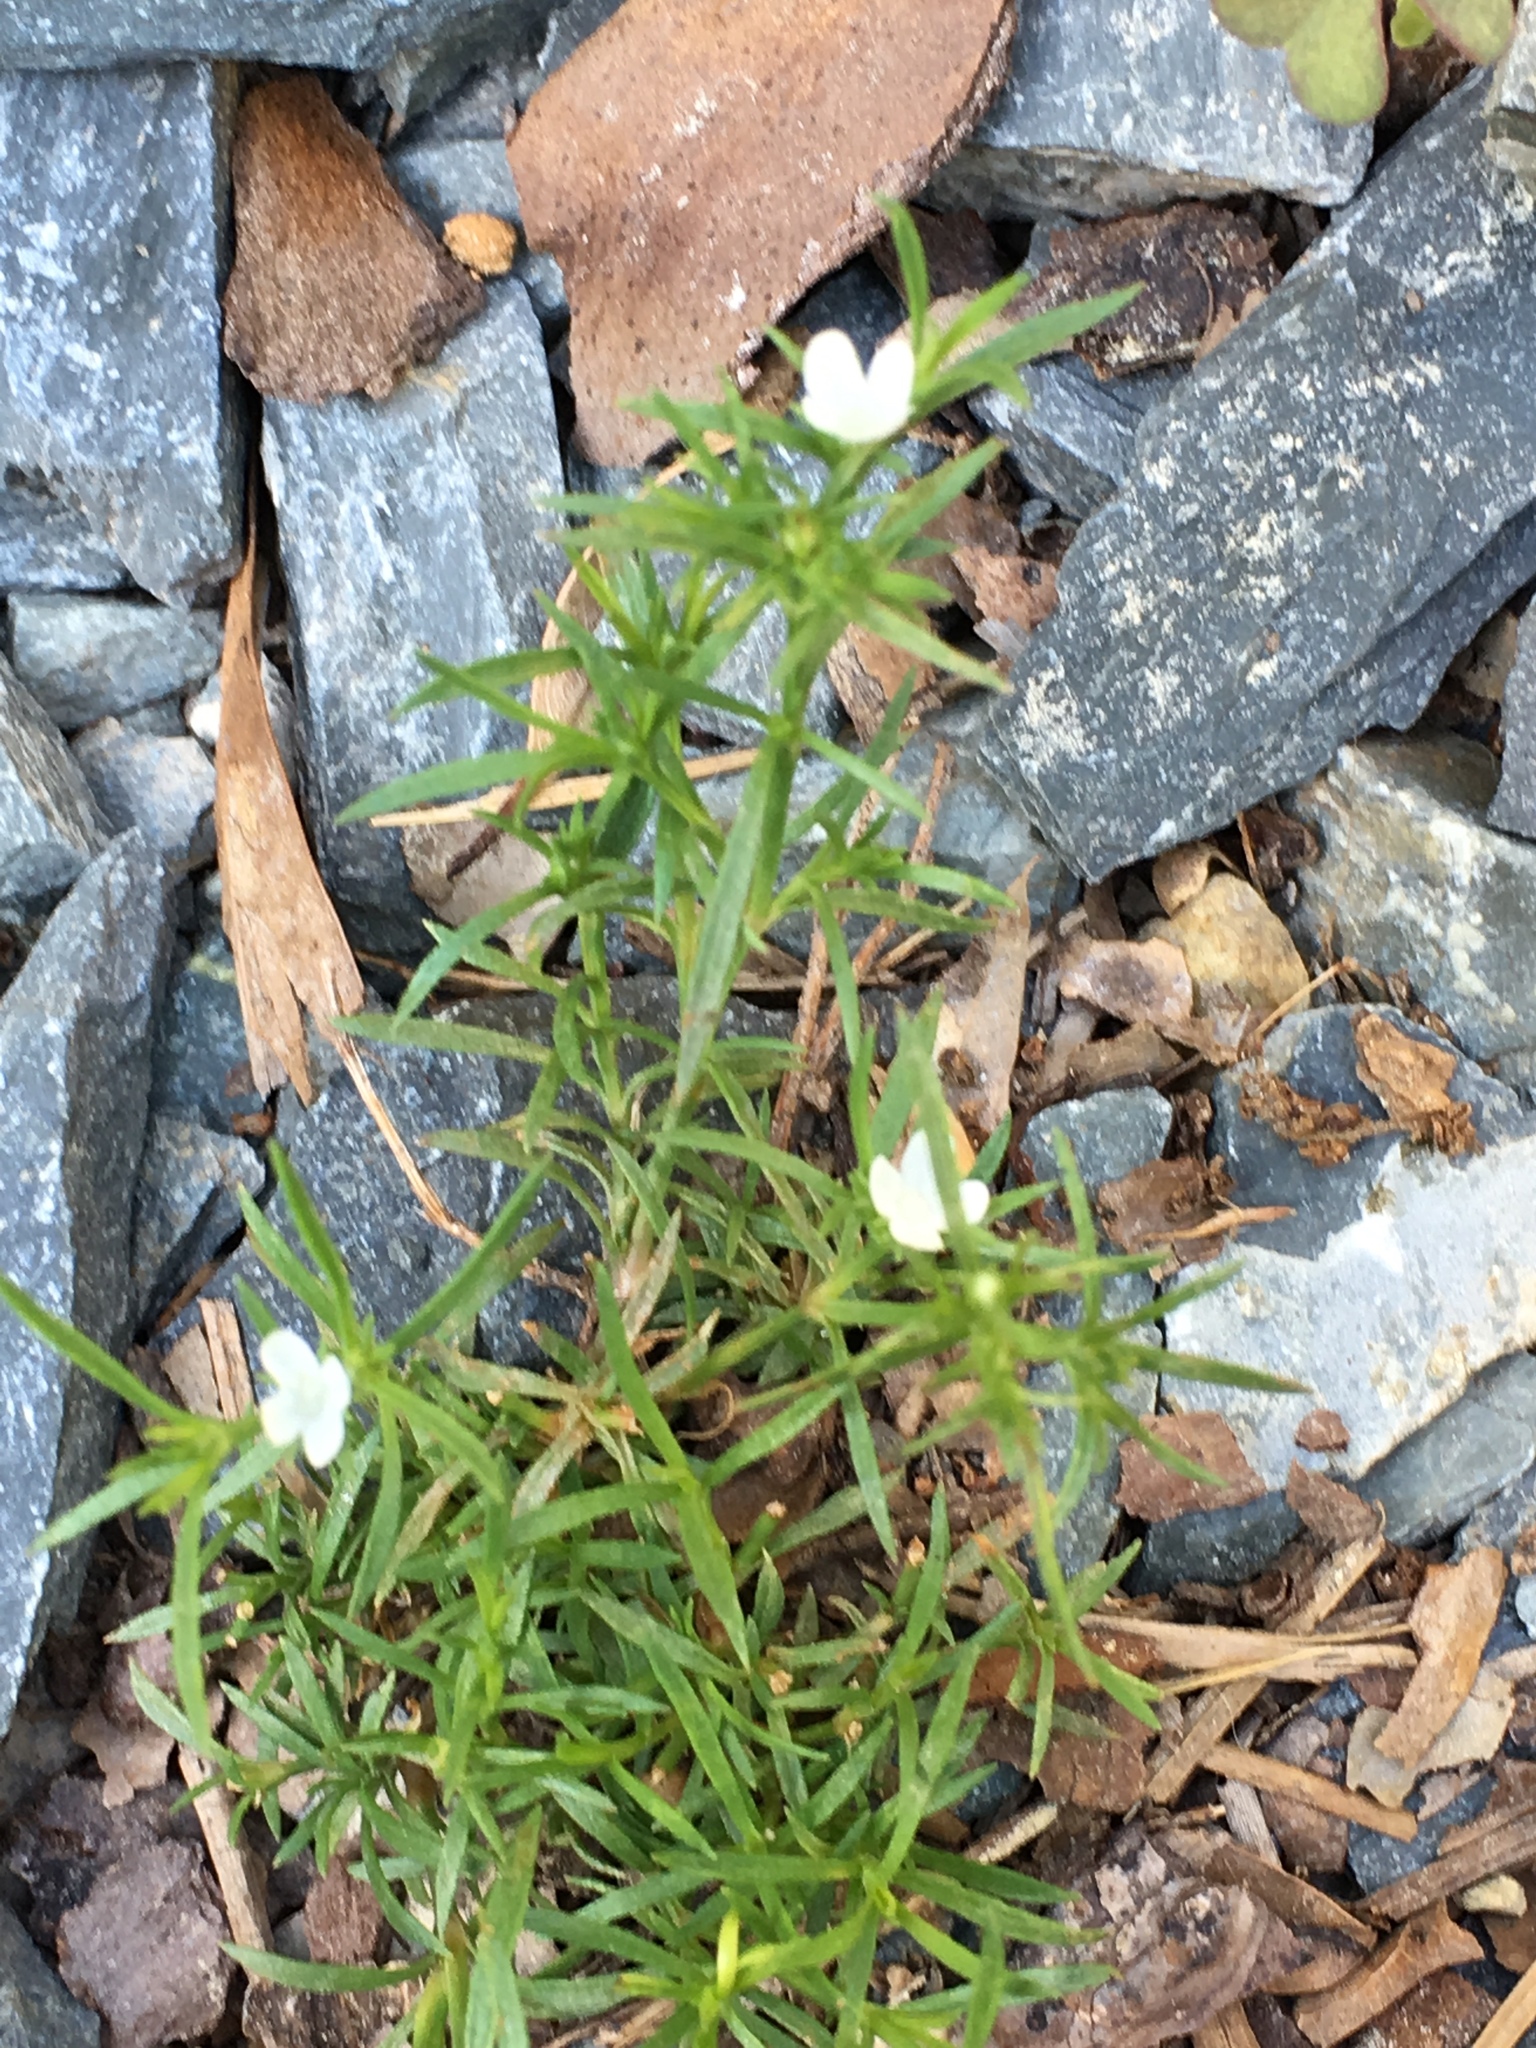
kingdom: Plantae
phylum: Tracheophyta
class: Magnoliopsida
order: Lamiales
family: Tetrachondraceae
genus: Polypremum
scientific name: Polypremum procumbens
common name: Juniper-leaf
